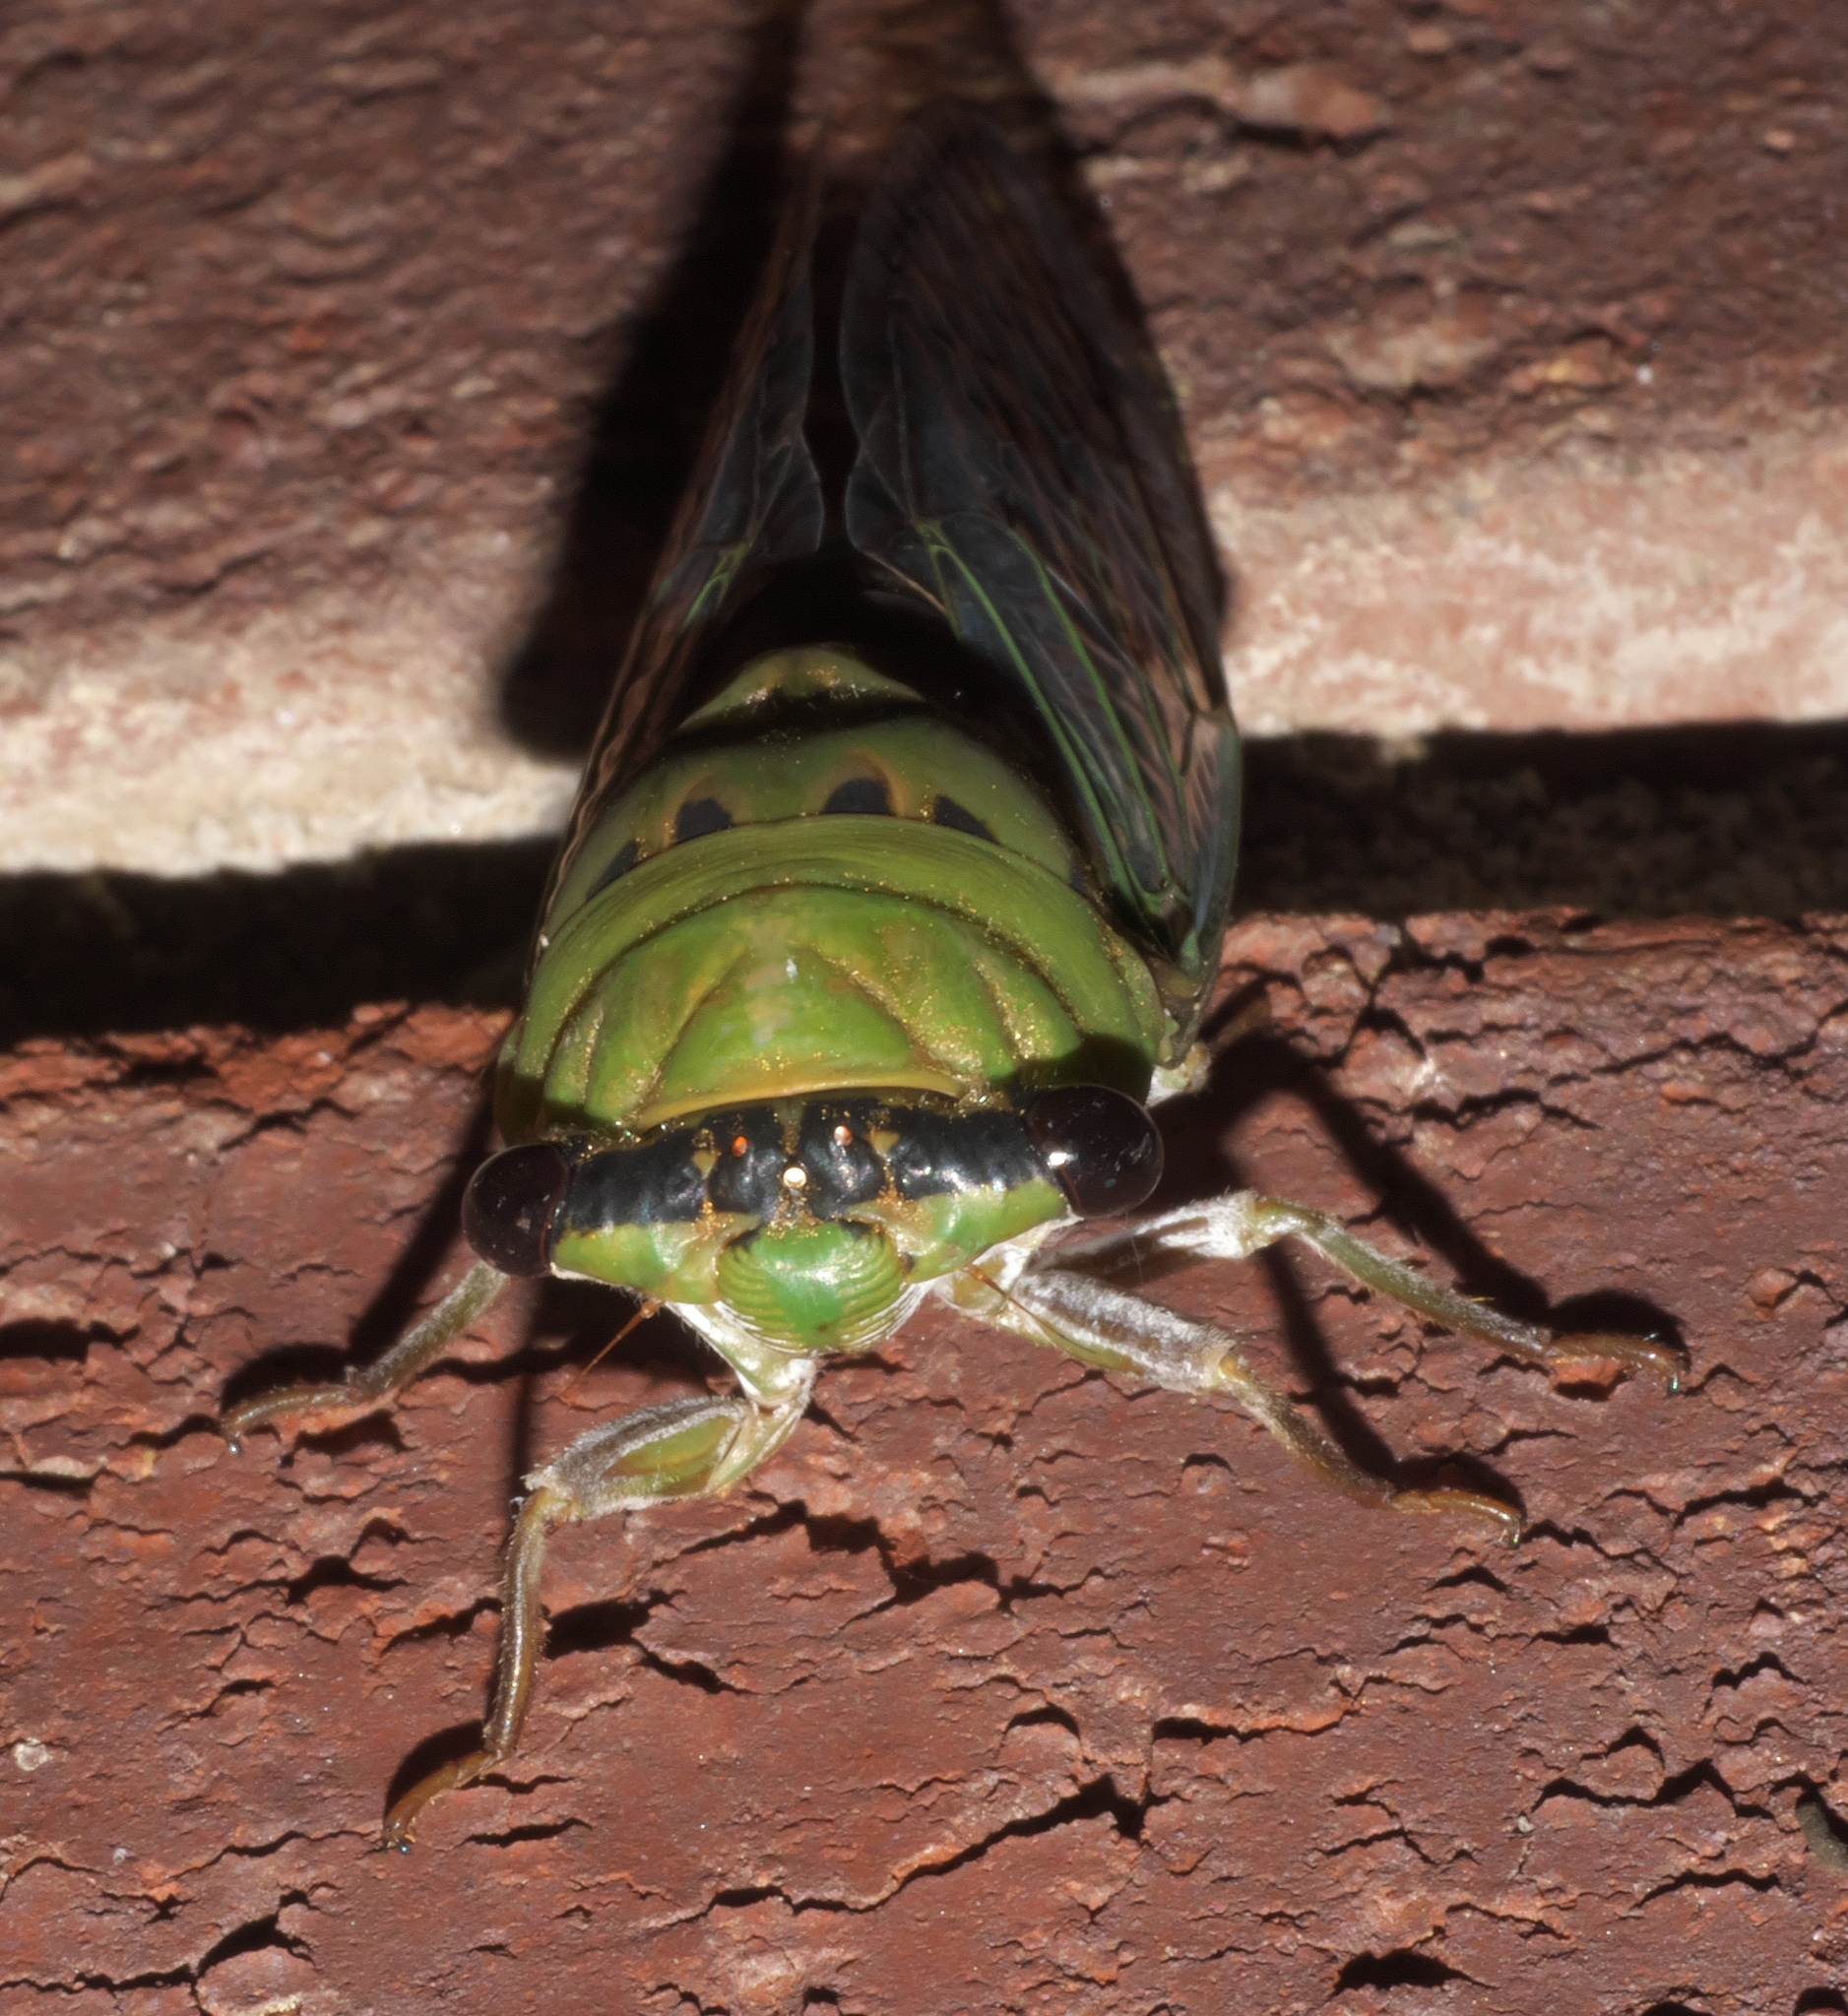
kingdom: Animalia
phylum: Arthropoda
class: Insecta
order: Hemiptera
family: Cicadidae
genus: Neotibicen
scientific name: Neotibicen superbus
